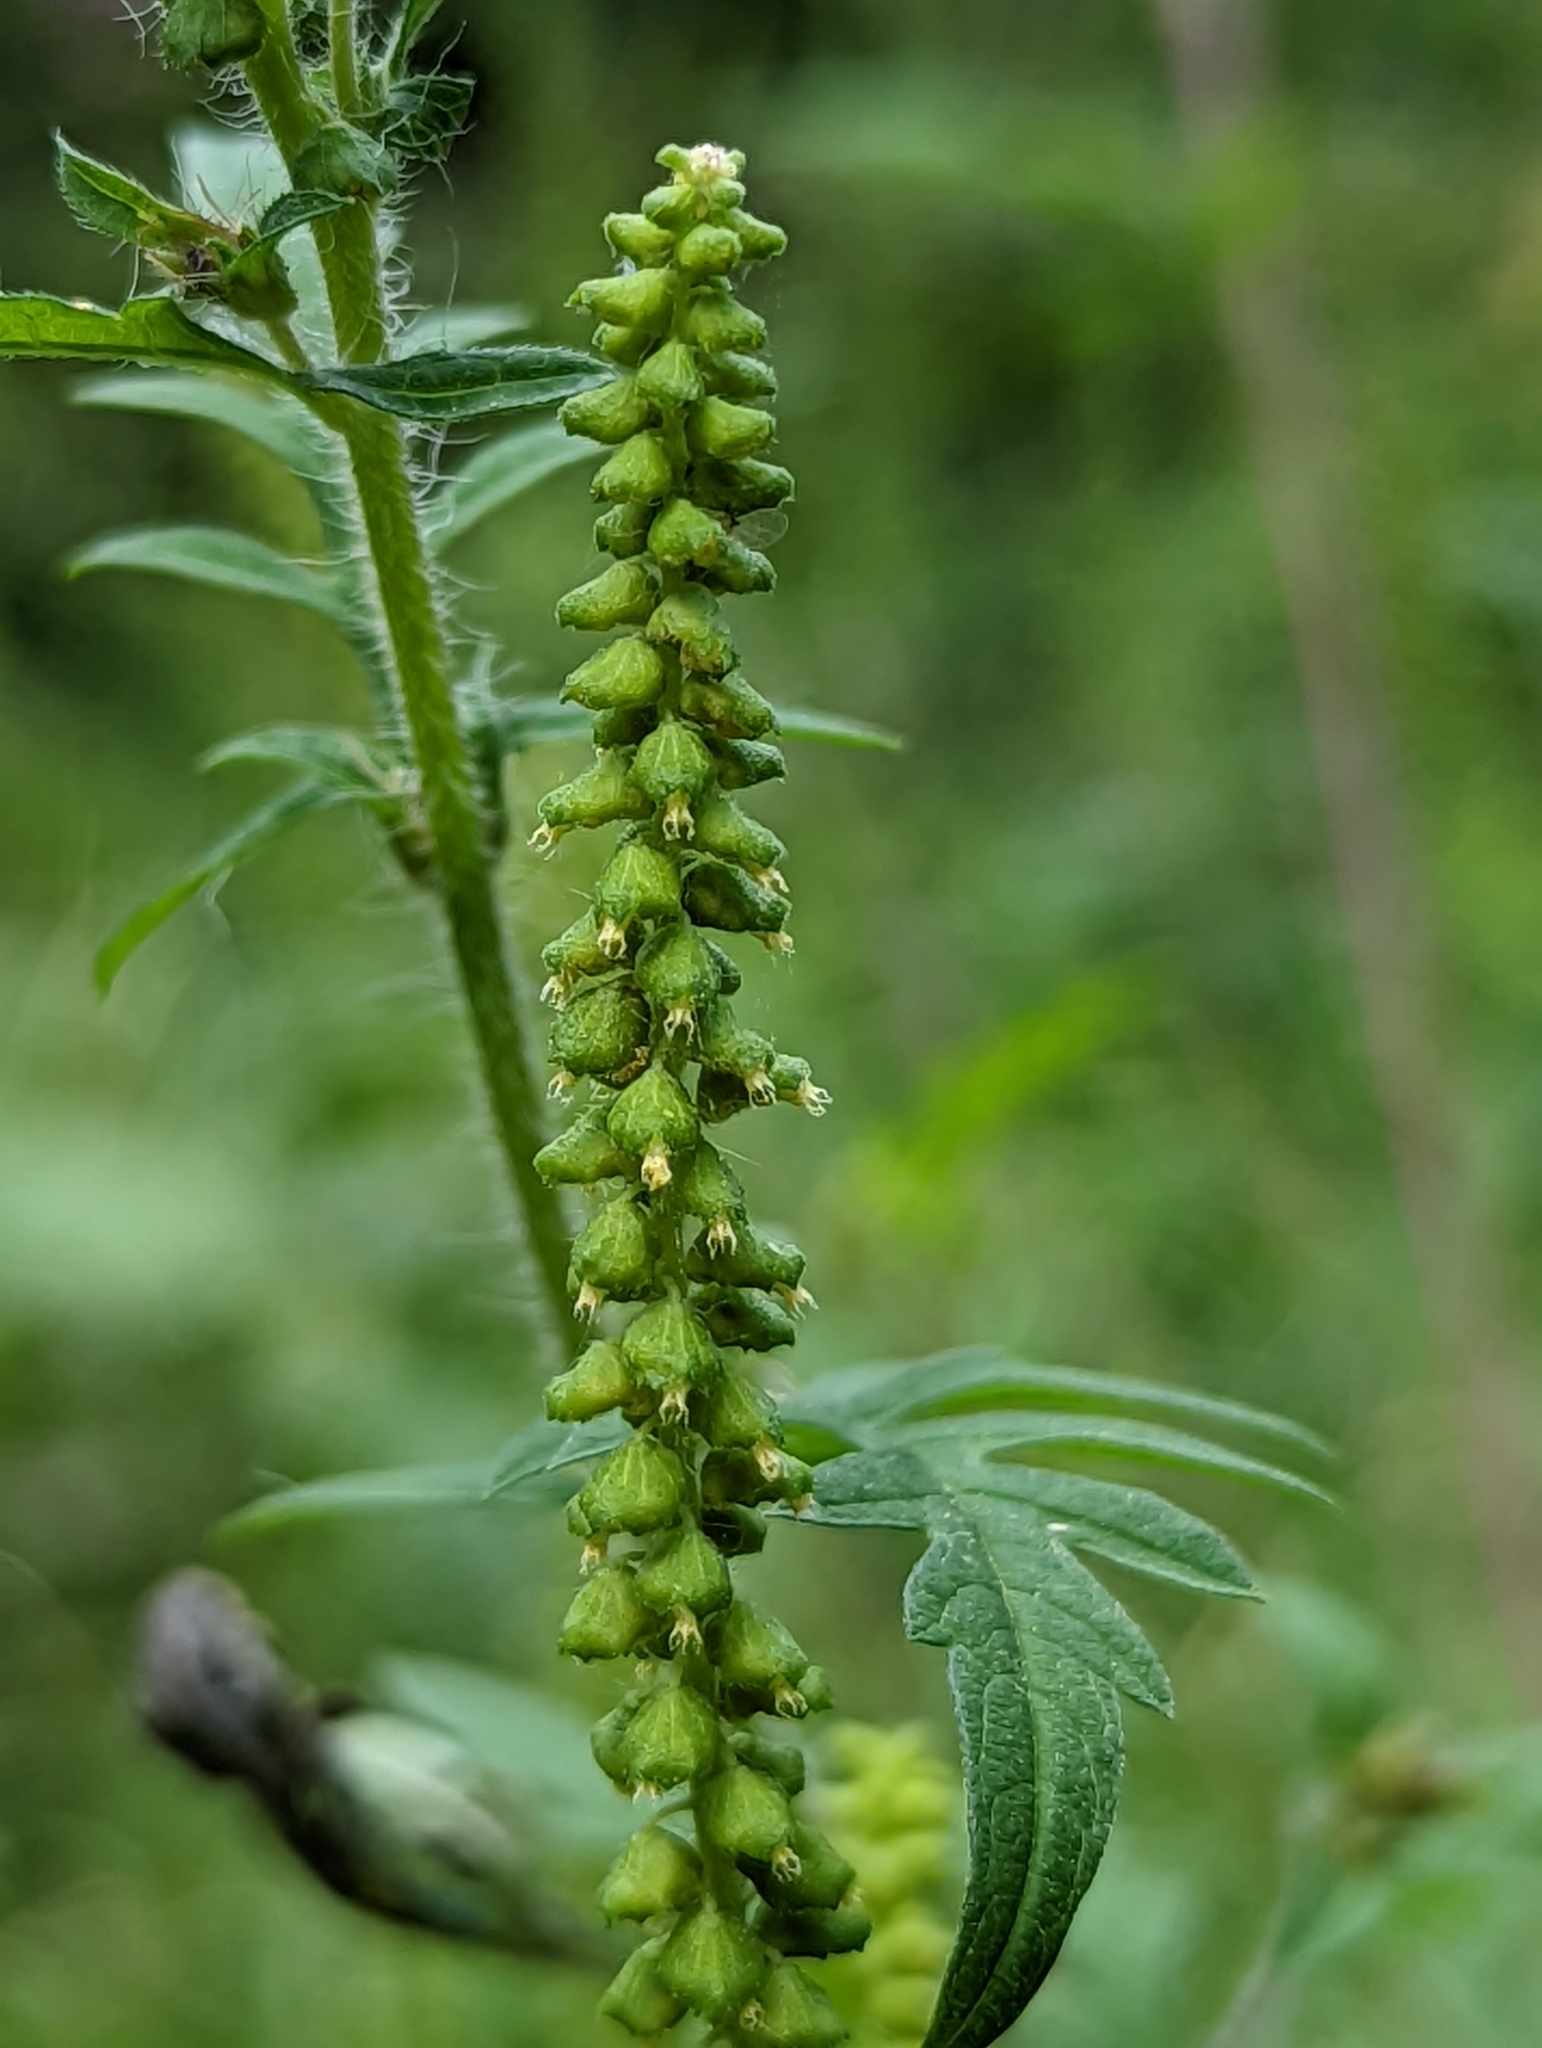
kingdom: Plantae
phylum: Tracheophyta
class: Magnoliopsida
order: Asterales
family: Asteraceae
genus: Ambrosia
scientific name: Ambrosia artemisiifolia
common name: Annual ragweed
